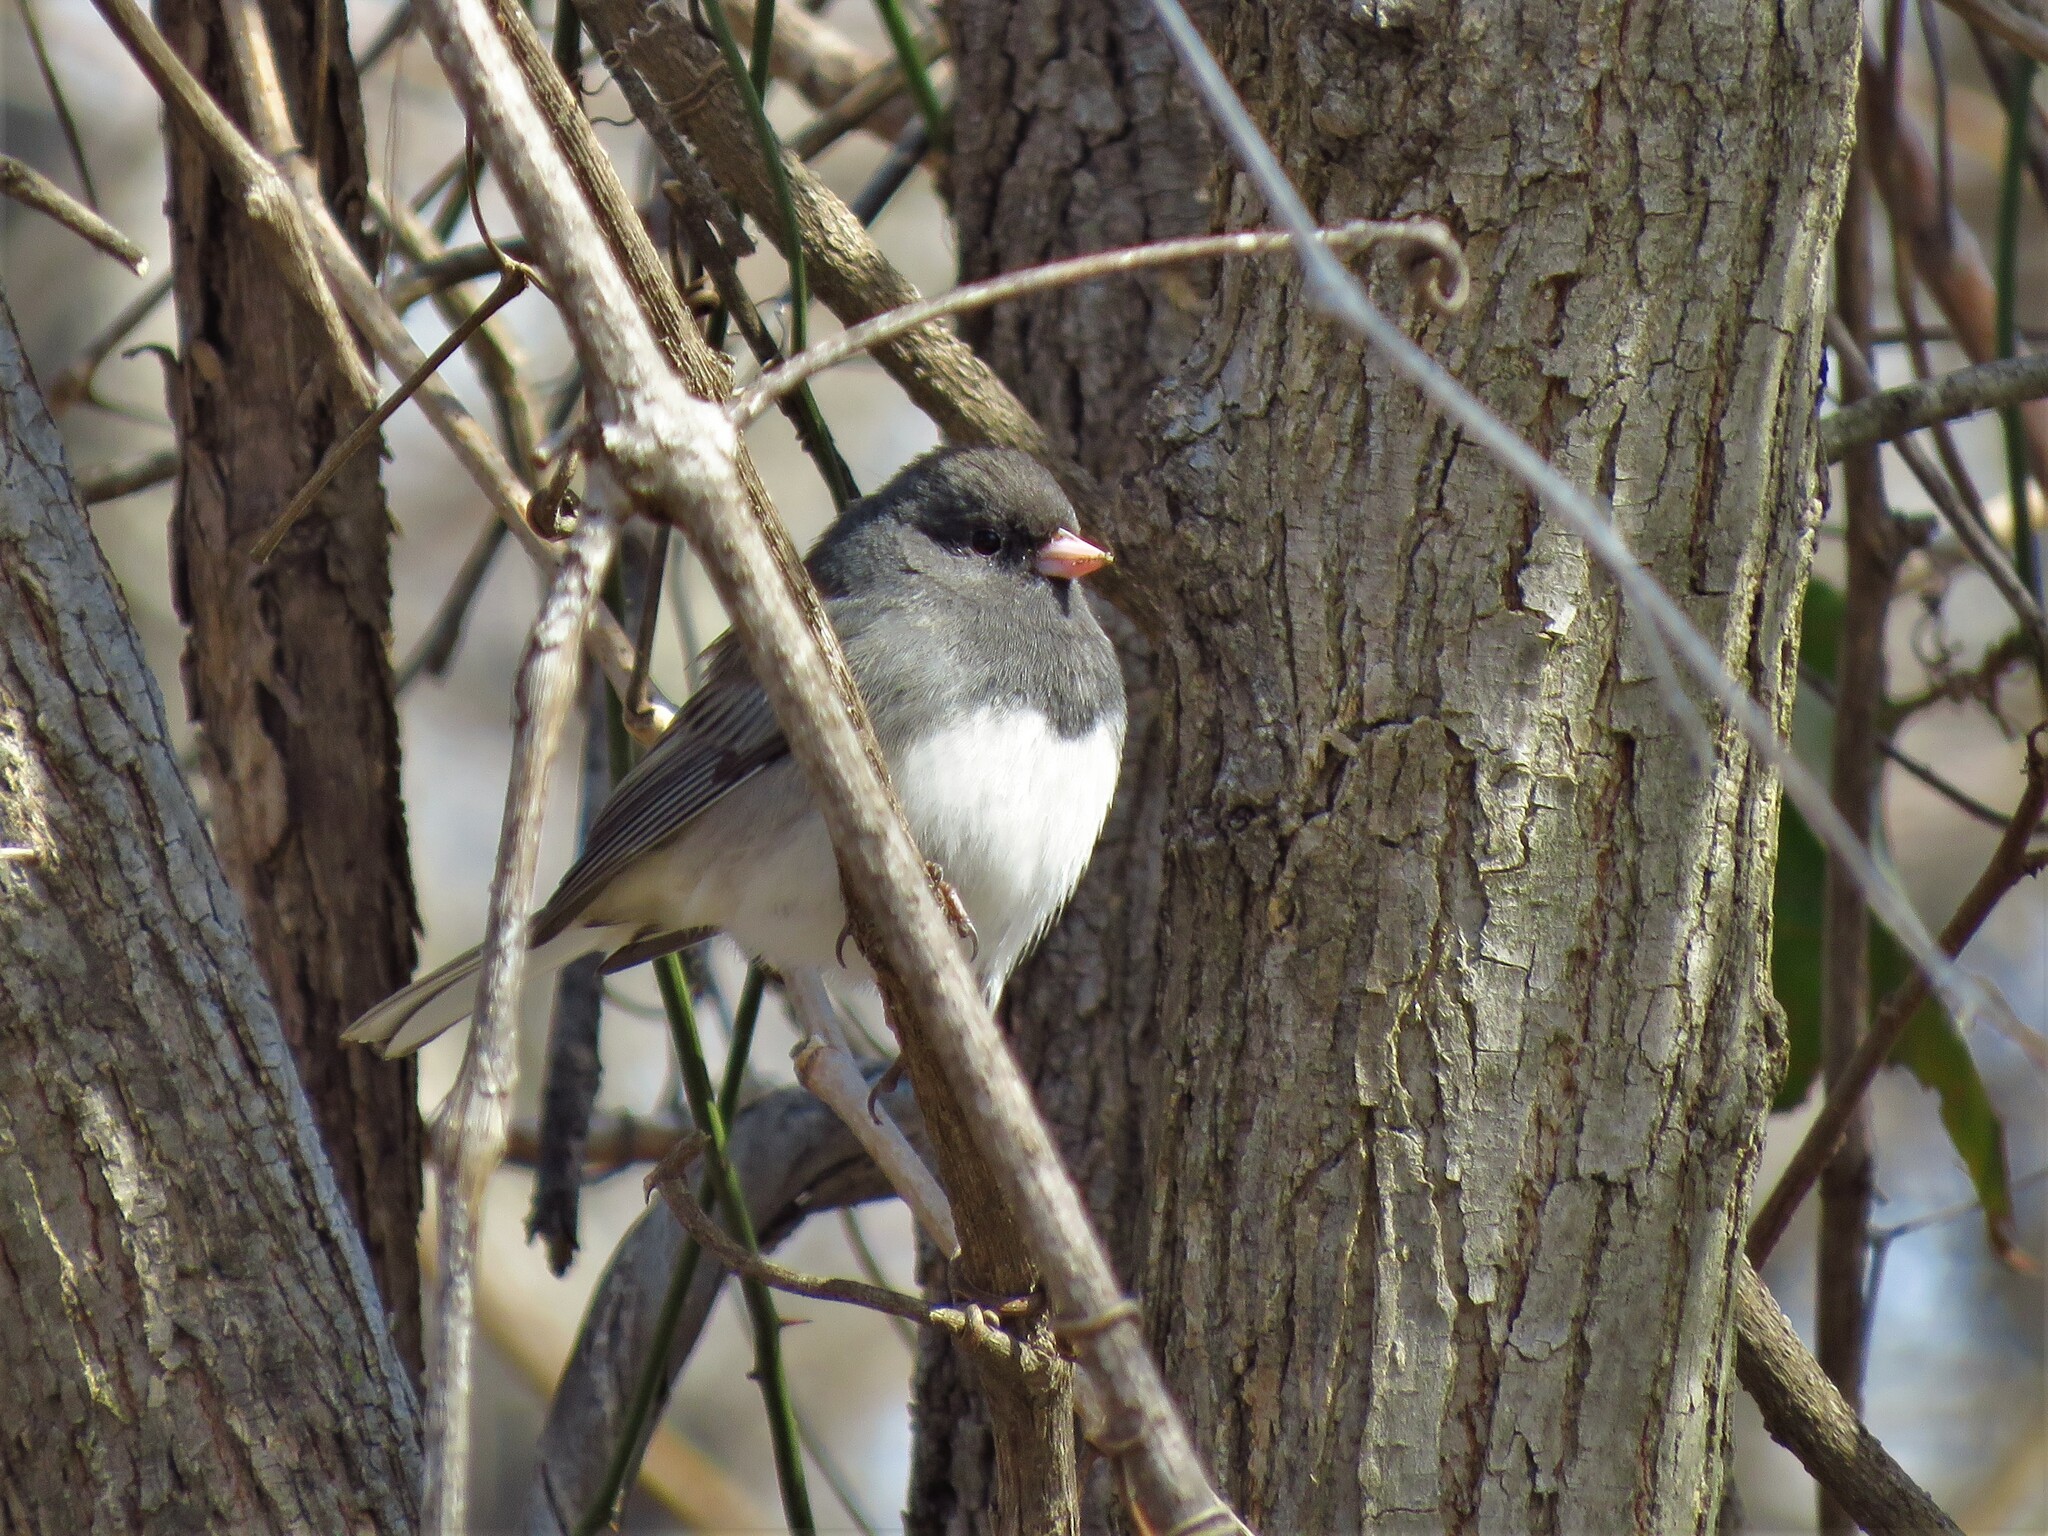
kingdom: Animalia
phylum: Chordata
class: Aves
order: Passeriformes
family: Passerellidae
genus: Junco
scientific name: Junco hyemalis
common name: Dark-eyed junco
